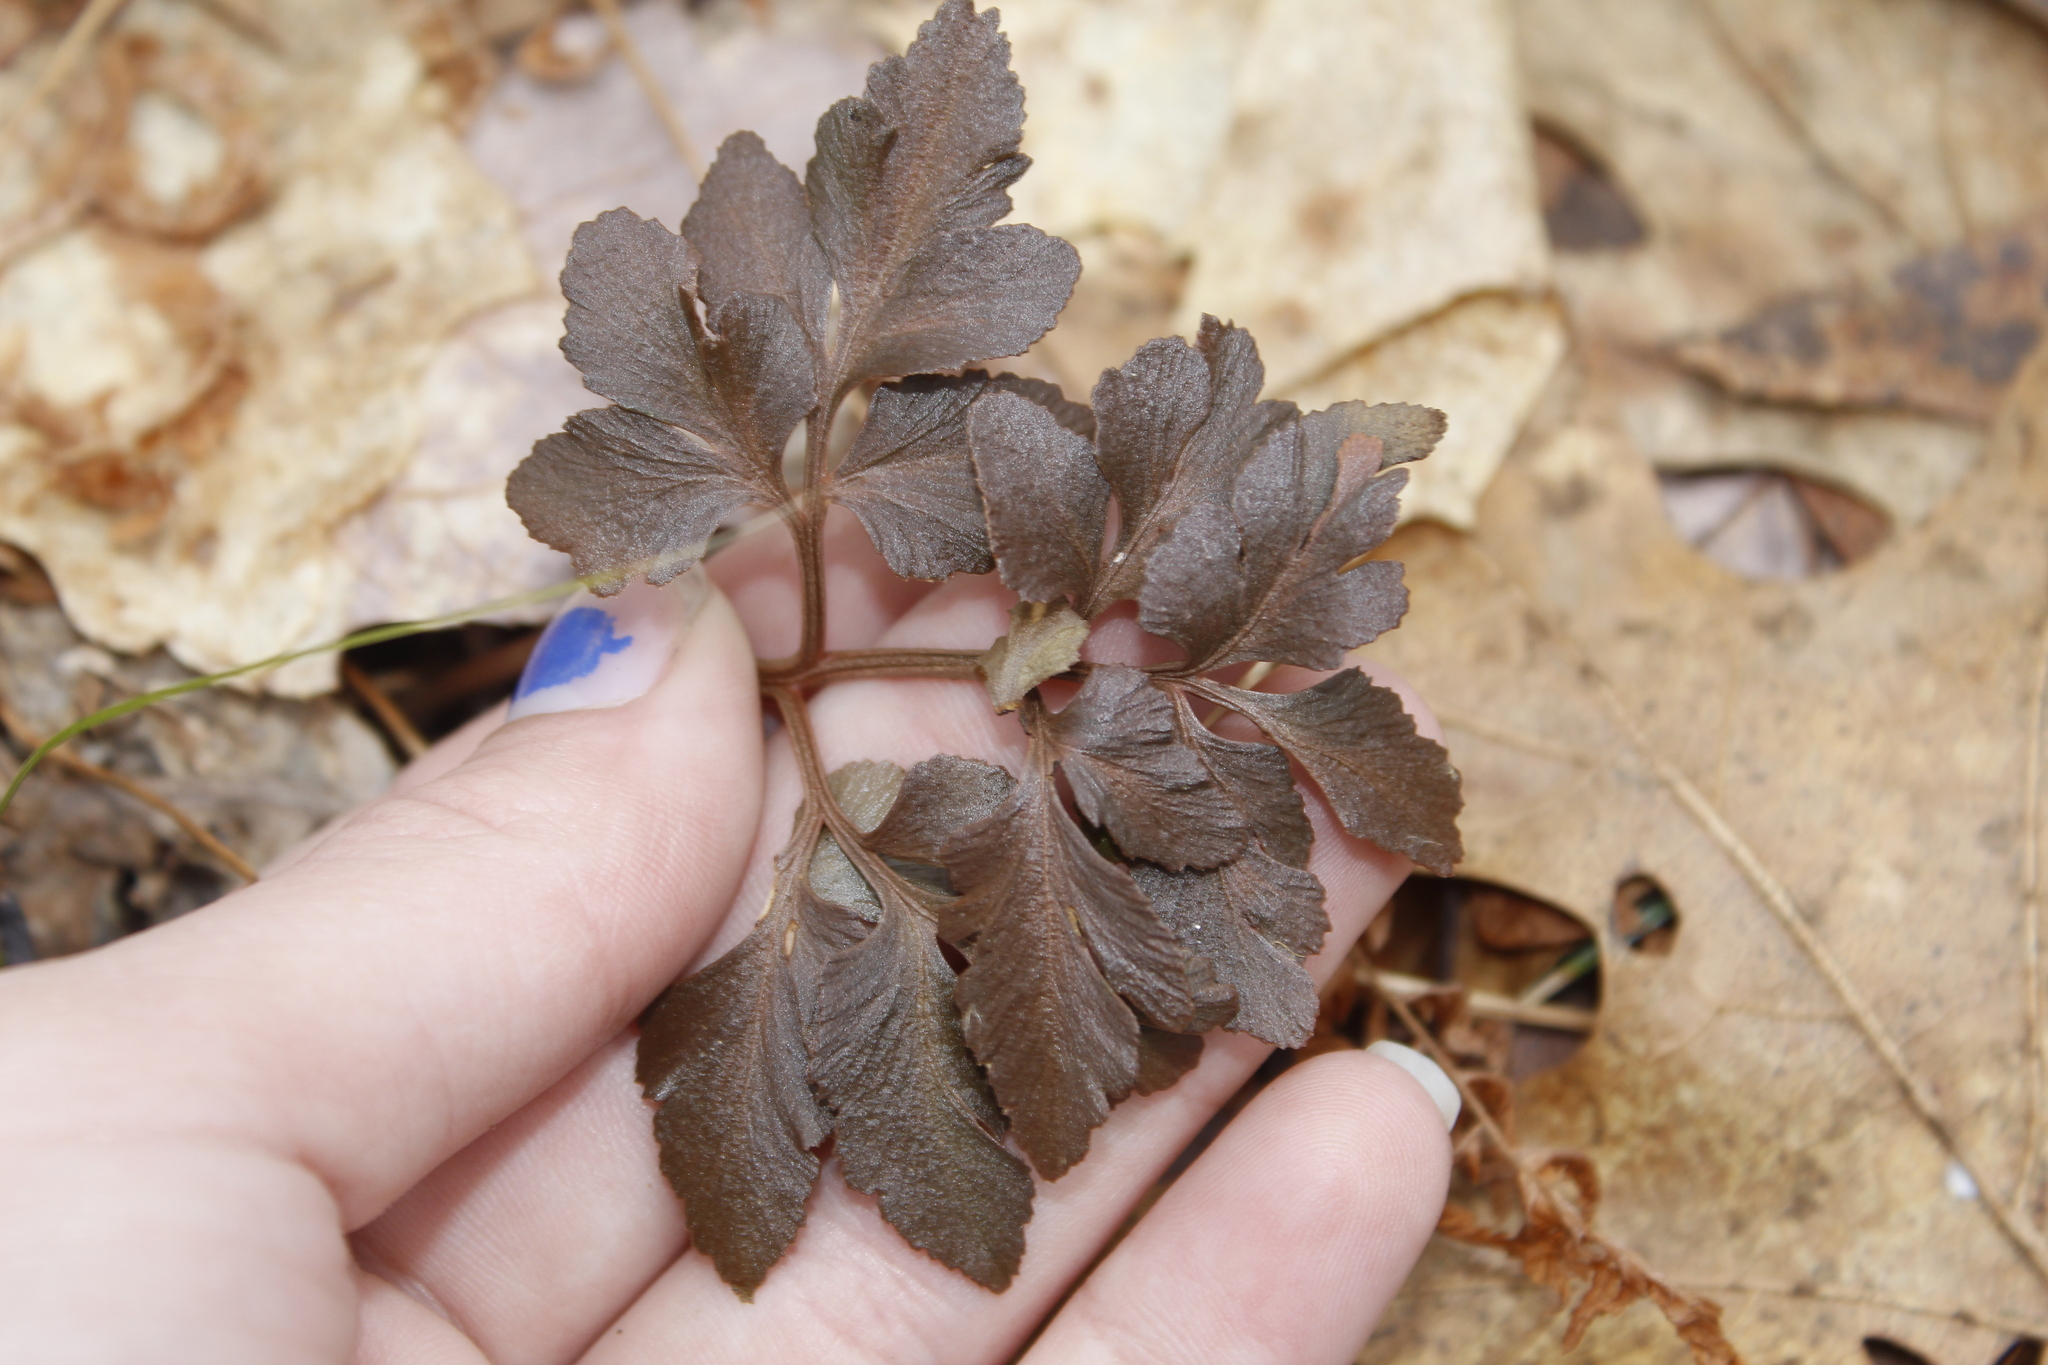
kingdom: Plantae
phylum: Tracheophyta
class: Polypodiopsida
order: Ophioglossales
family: Ophioglossaceae
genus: Sceptridium
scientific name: Sceptridium dissectum
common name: Cut-leaved grapefern
